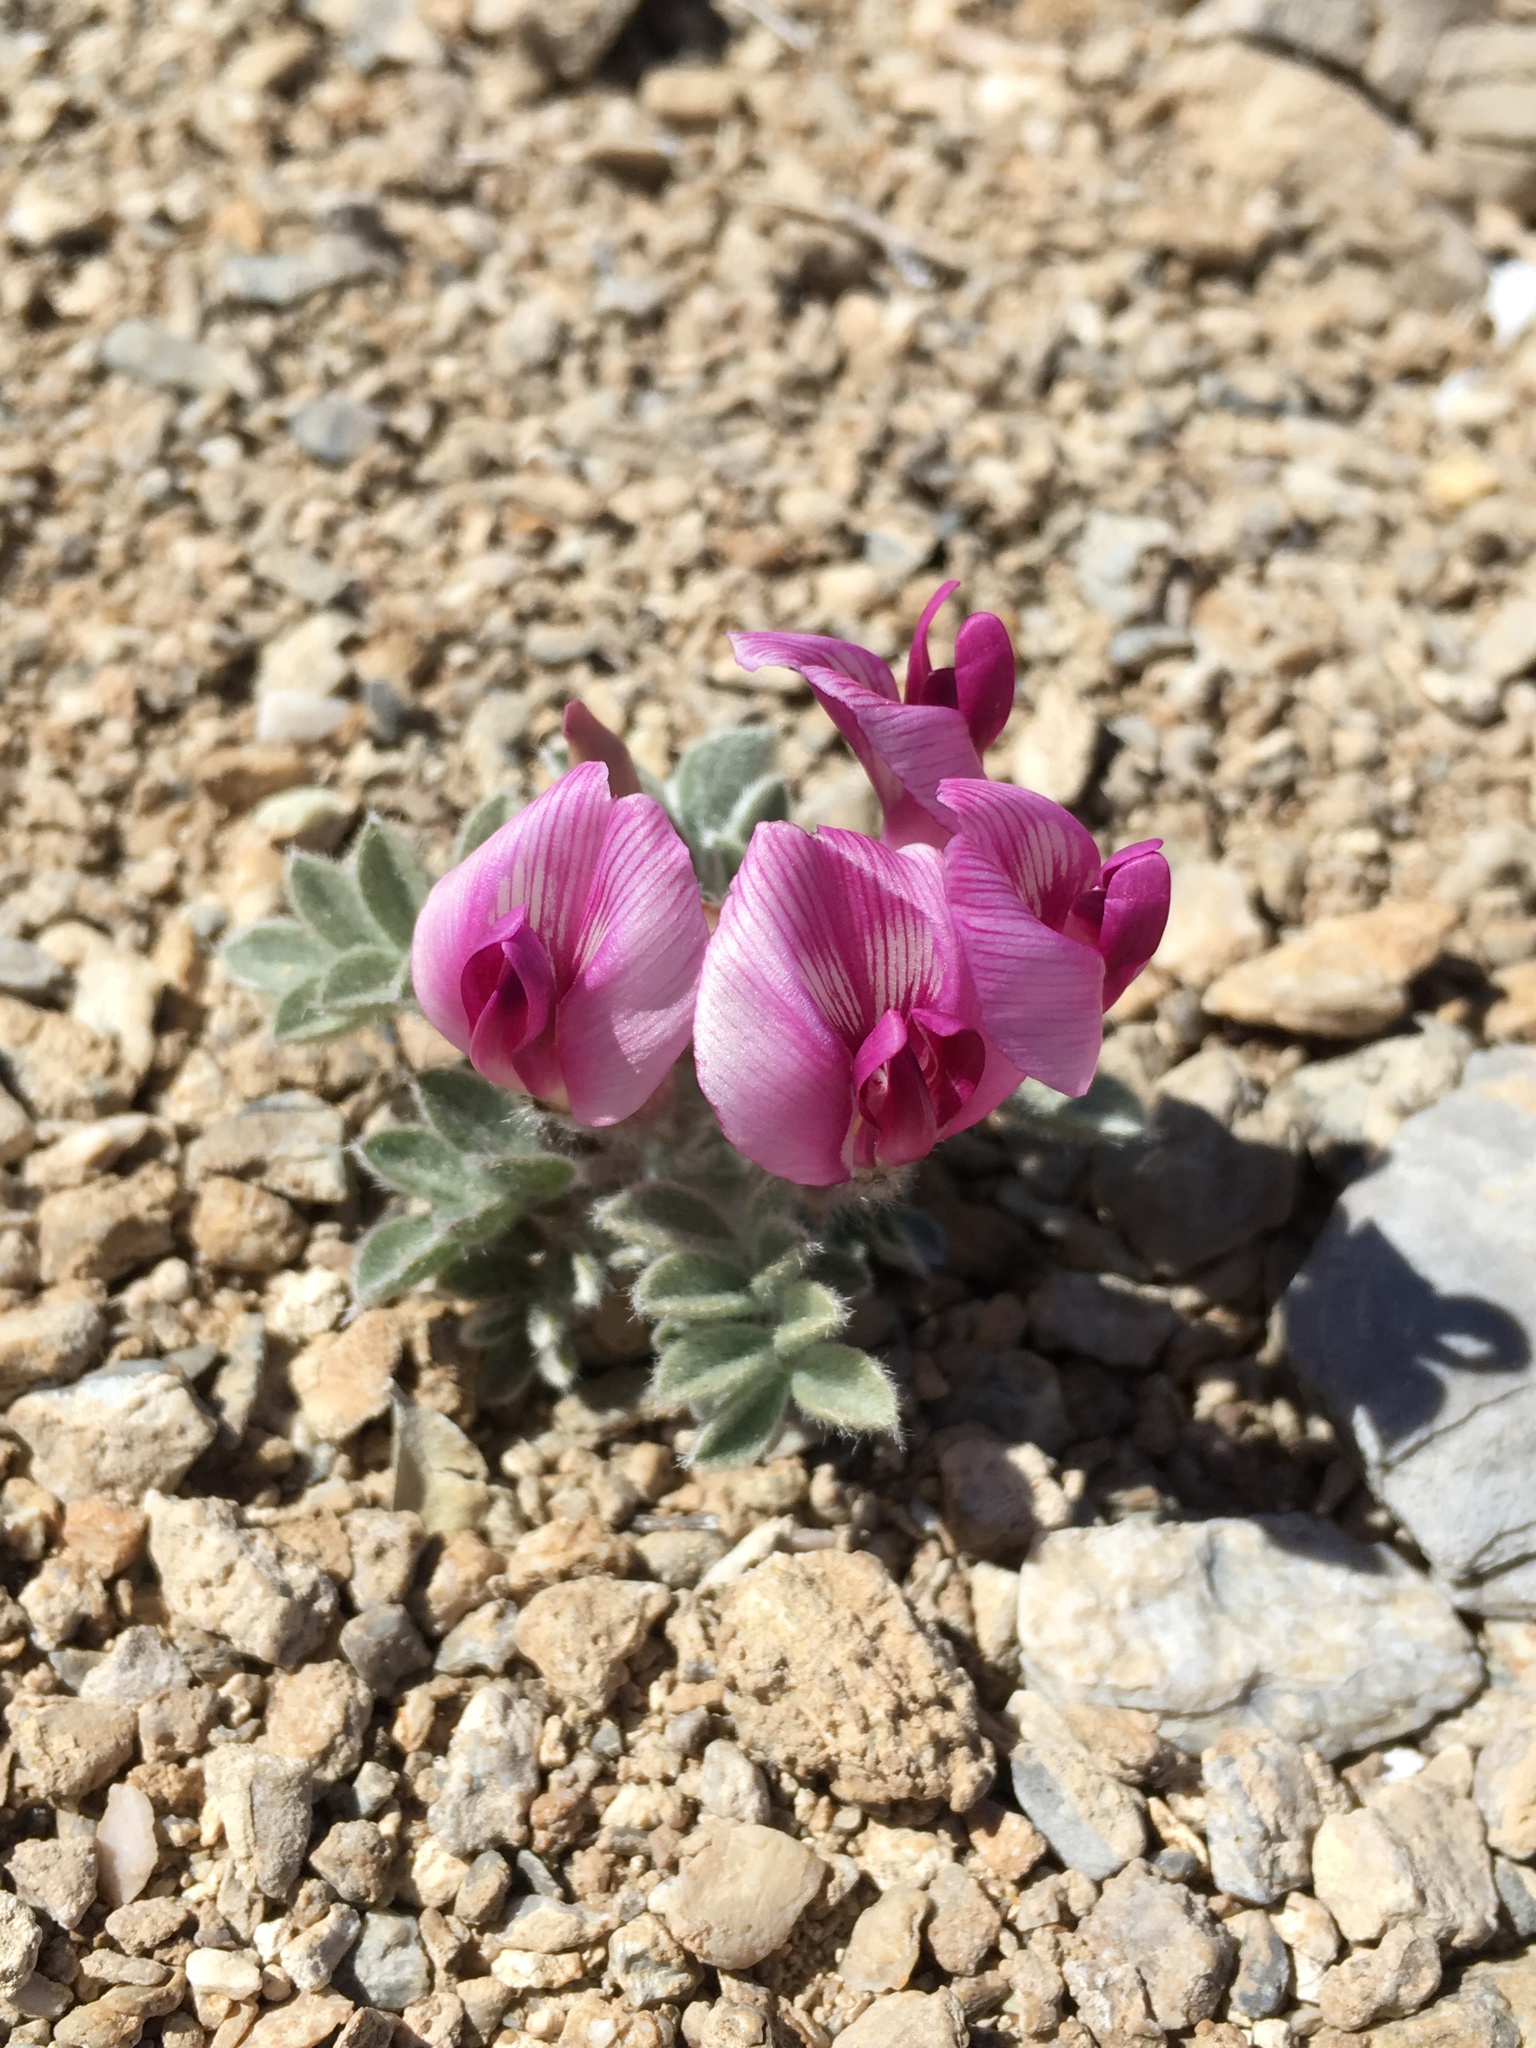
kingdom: Plantae
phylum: Tracheophyta
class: Magnoliopsida
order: Fabales
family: Fabaceae
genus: Astragalus
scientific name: Astragalus newberryi
